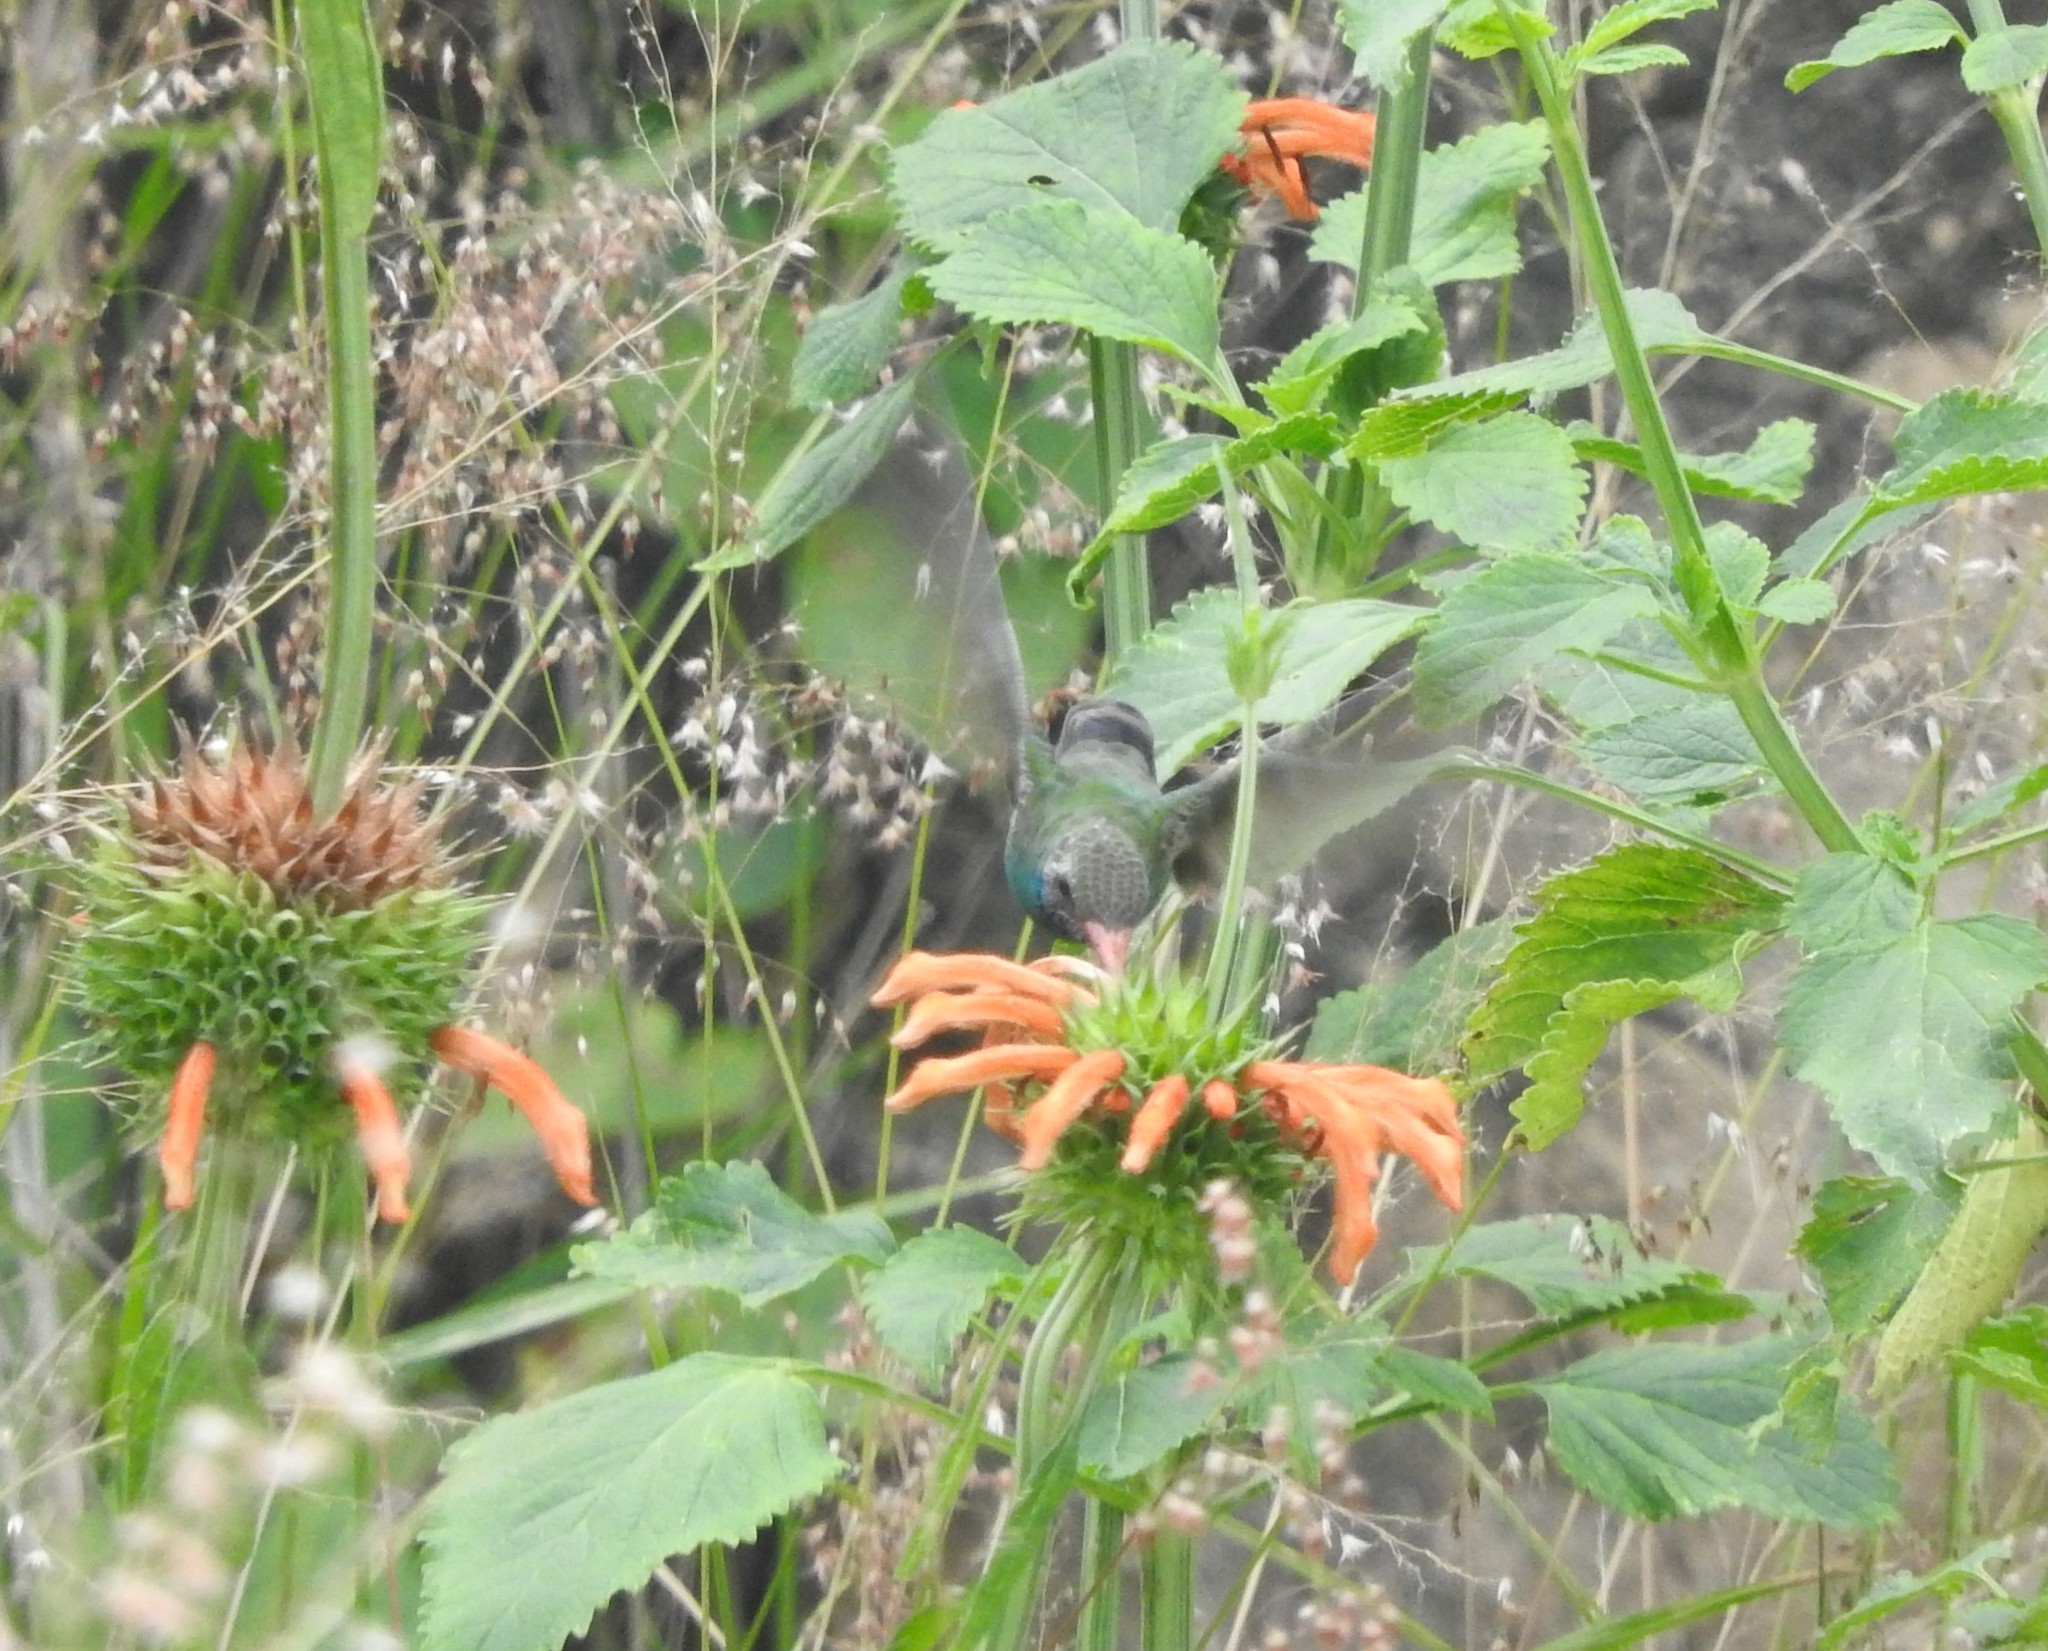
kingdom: Animalia
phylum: Chordata
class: Aves
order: Apodiformes
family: Trochilidae
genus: Cynanthus
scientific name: Cynanthus latirostris
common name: Broad-billed hummingbird
